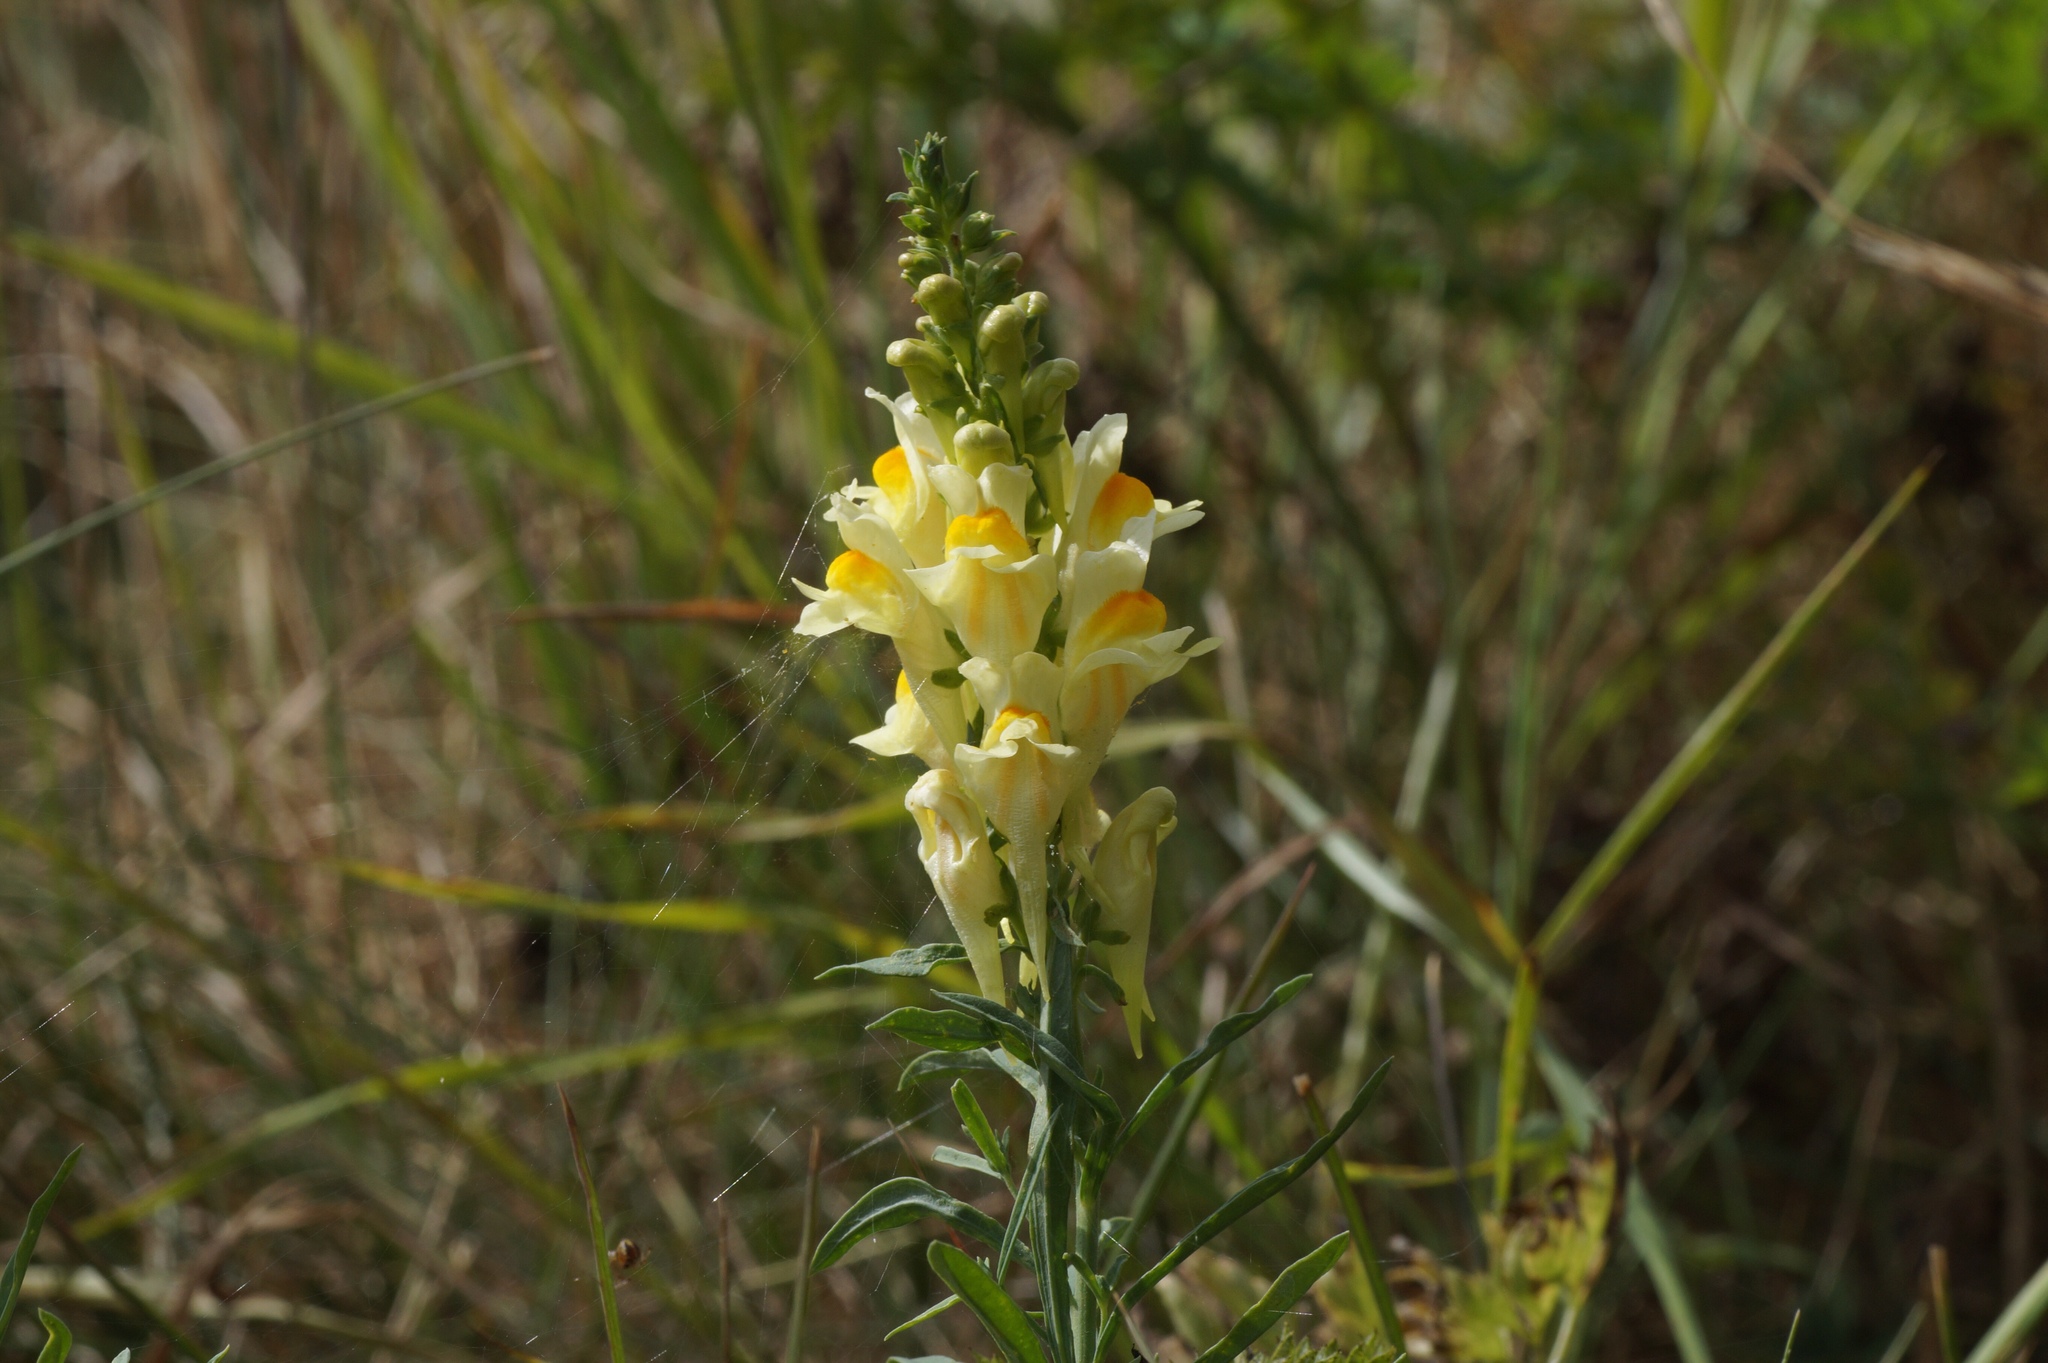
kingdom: Plantae
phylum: Tracheophyta
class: Magnoliopsida
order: Lamiales
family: Plantaginaceae
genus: Linaria
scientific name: Linaria vulgaris
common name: Butter and eggs
